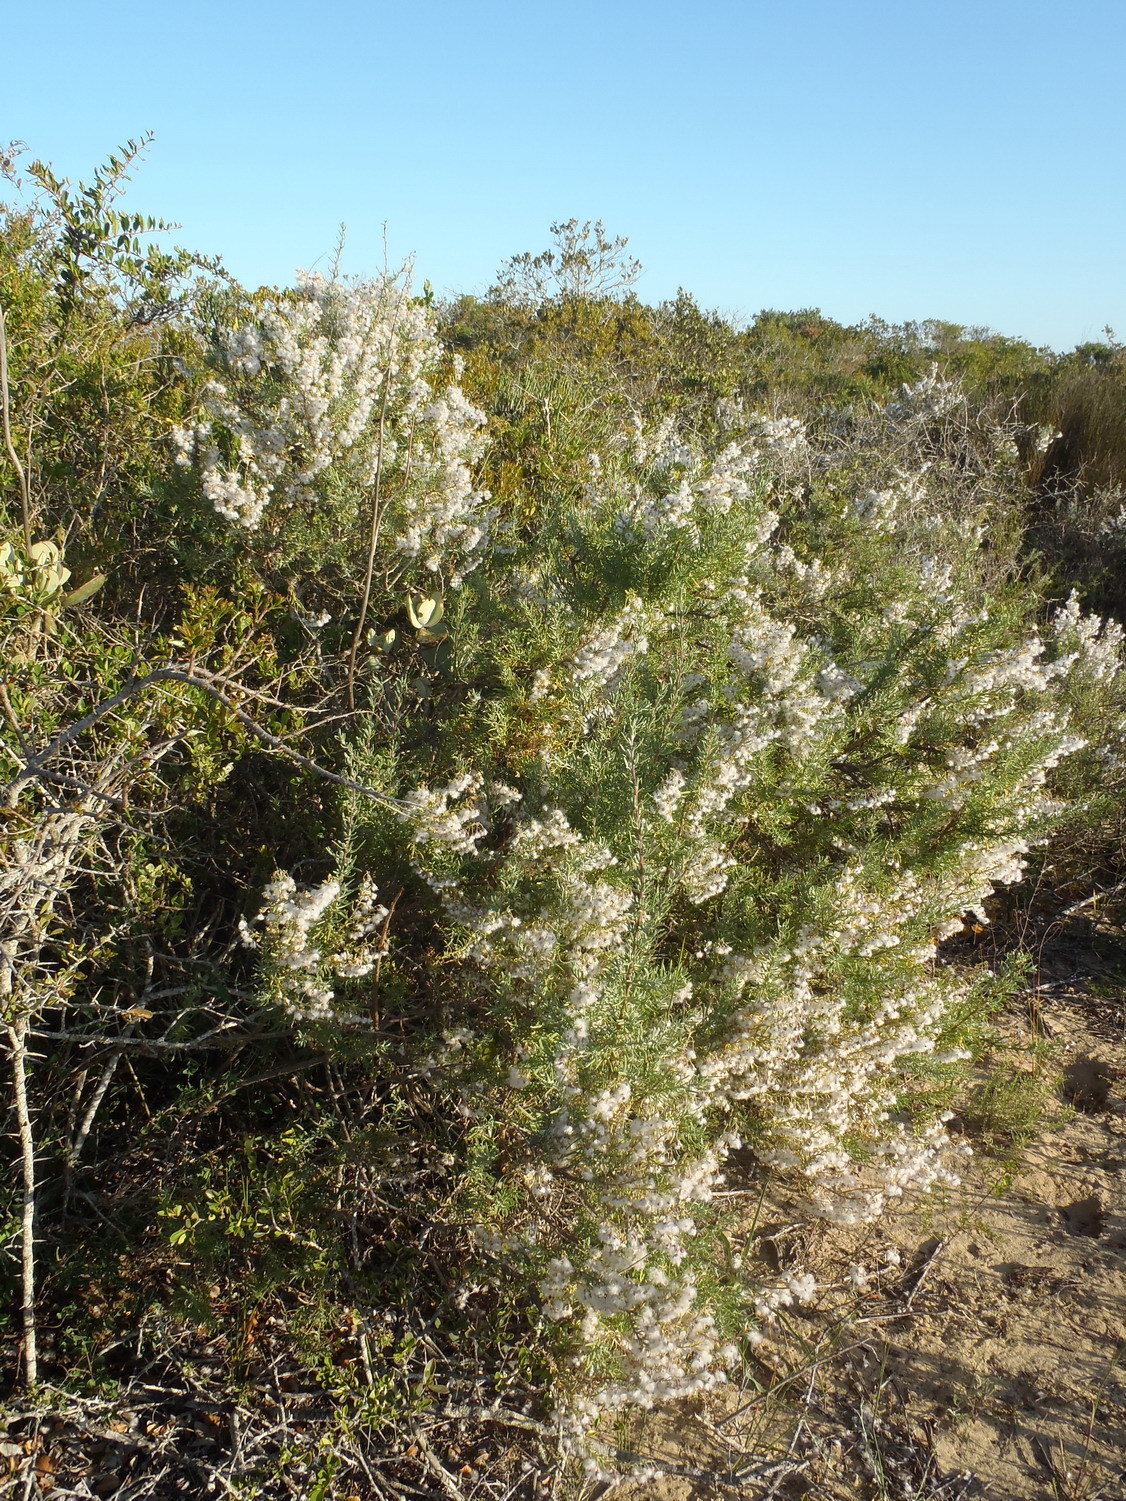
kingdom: Plantae
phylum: Tracheophyta
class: Magnoliopsida
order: Asterales
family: Asteraceae
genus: Eriocephalus
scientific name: Eriocephalus racemosus
